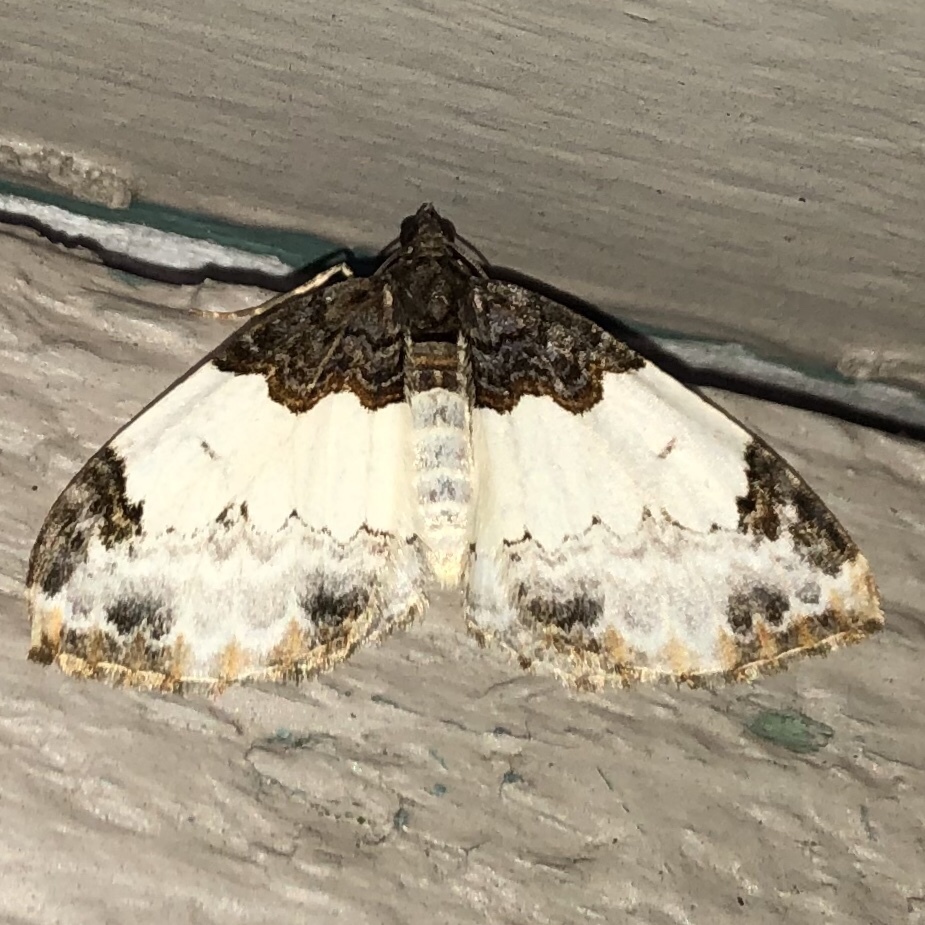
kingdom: Animalia
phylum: Arthropoda
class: Insecta
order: Lepidoptera
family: Geometridae
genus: Mesoleuca
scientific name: Mesoleuca ruficillata
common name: White-ribboned carpet moth
